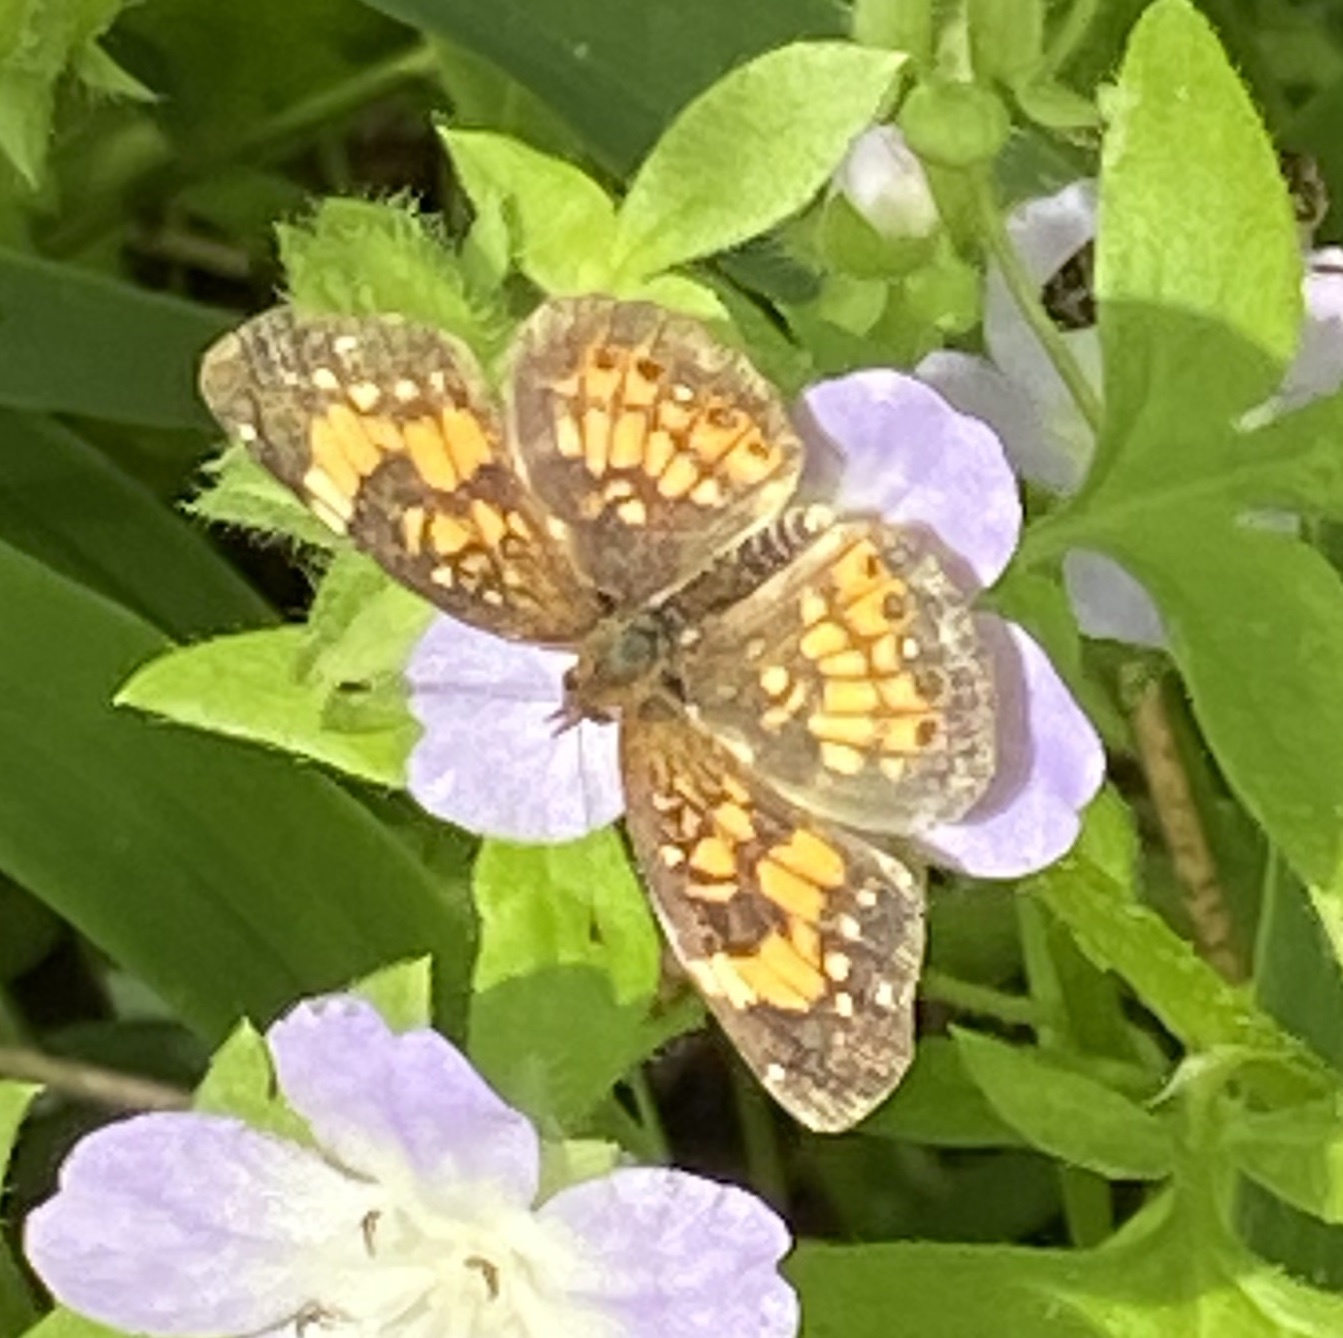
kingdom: Animalia
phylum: Arthropoda
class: Insecta
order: Lepidoptera
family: Nymphalidae
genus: Chlosyne
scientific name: Chlosyne nycteis
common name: Silvery checkerspot
